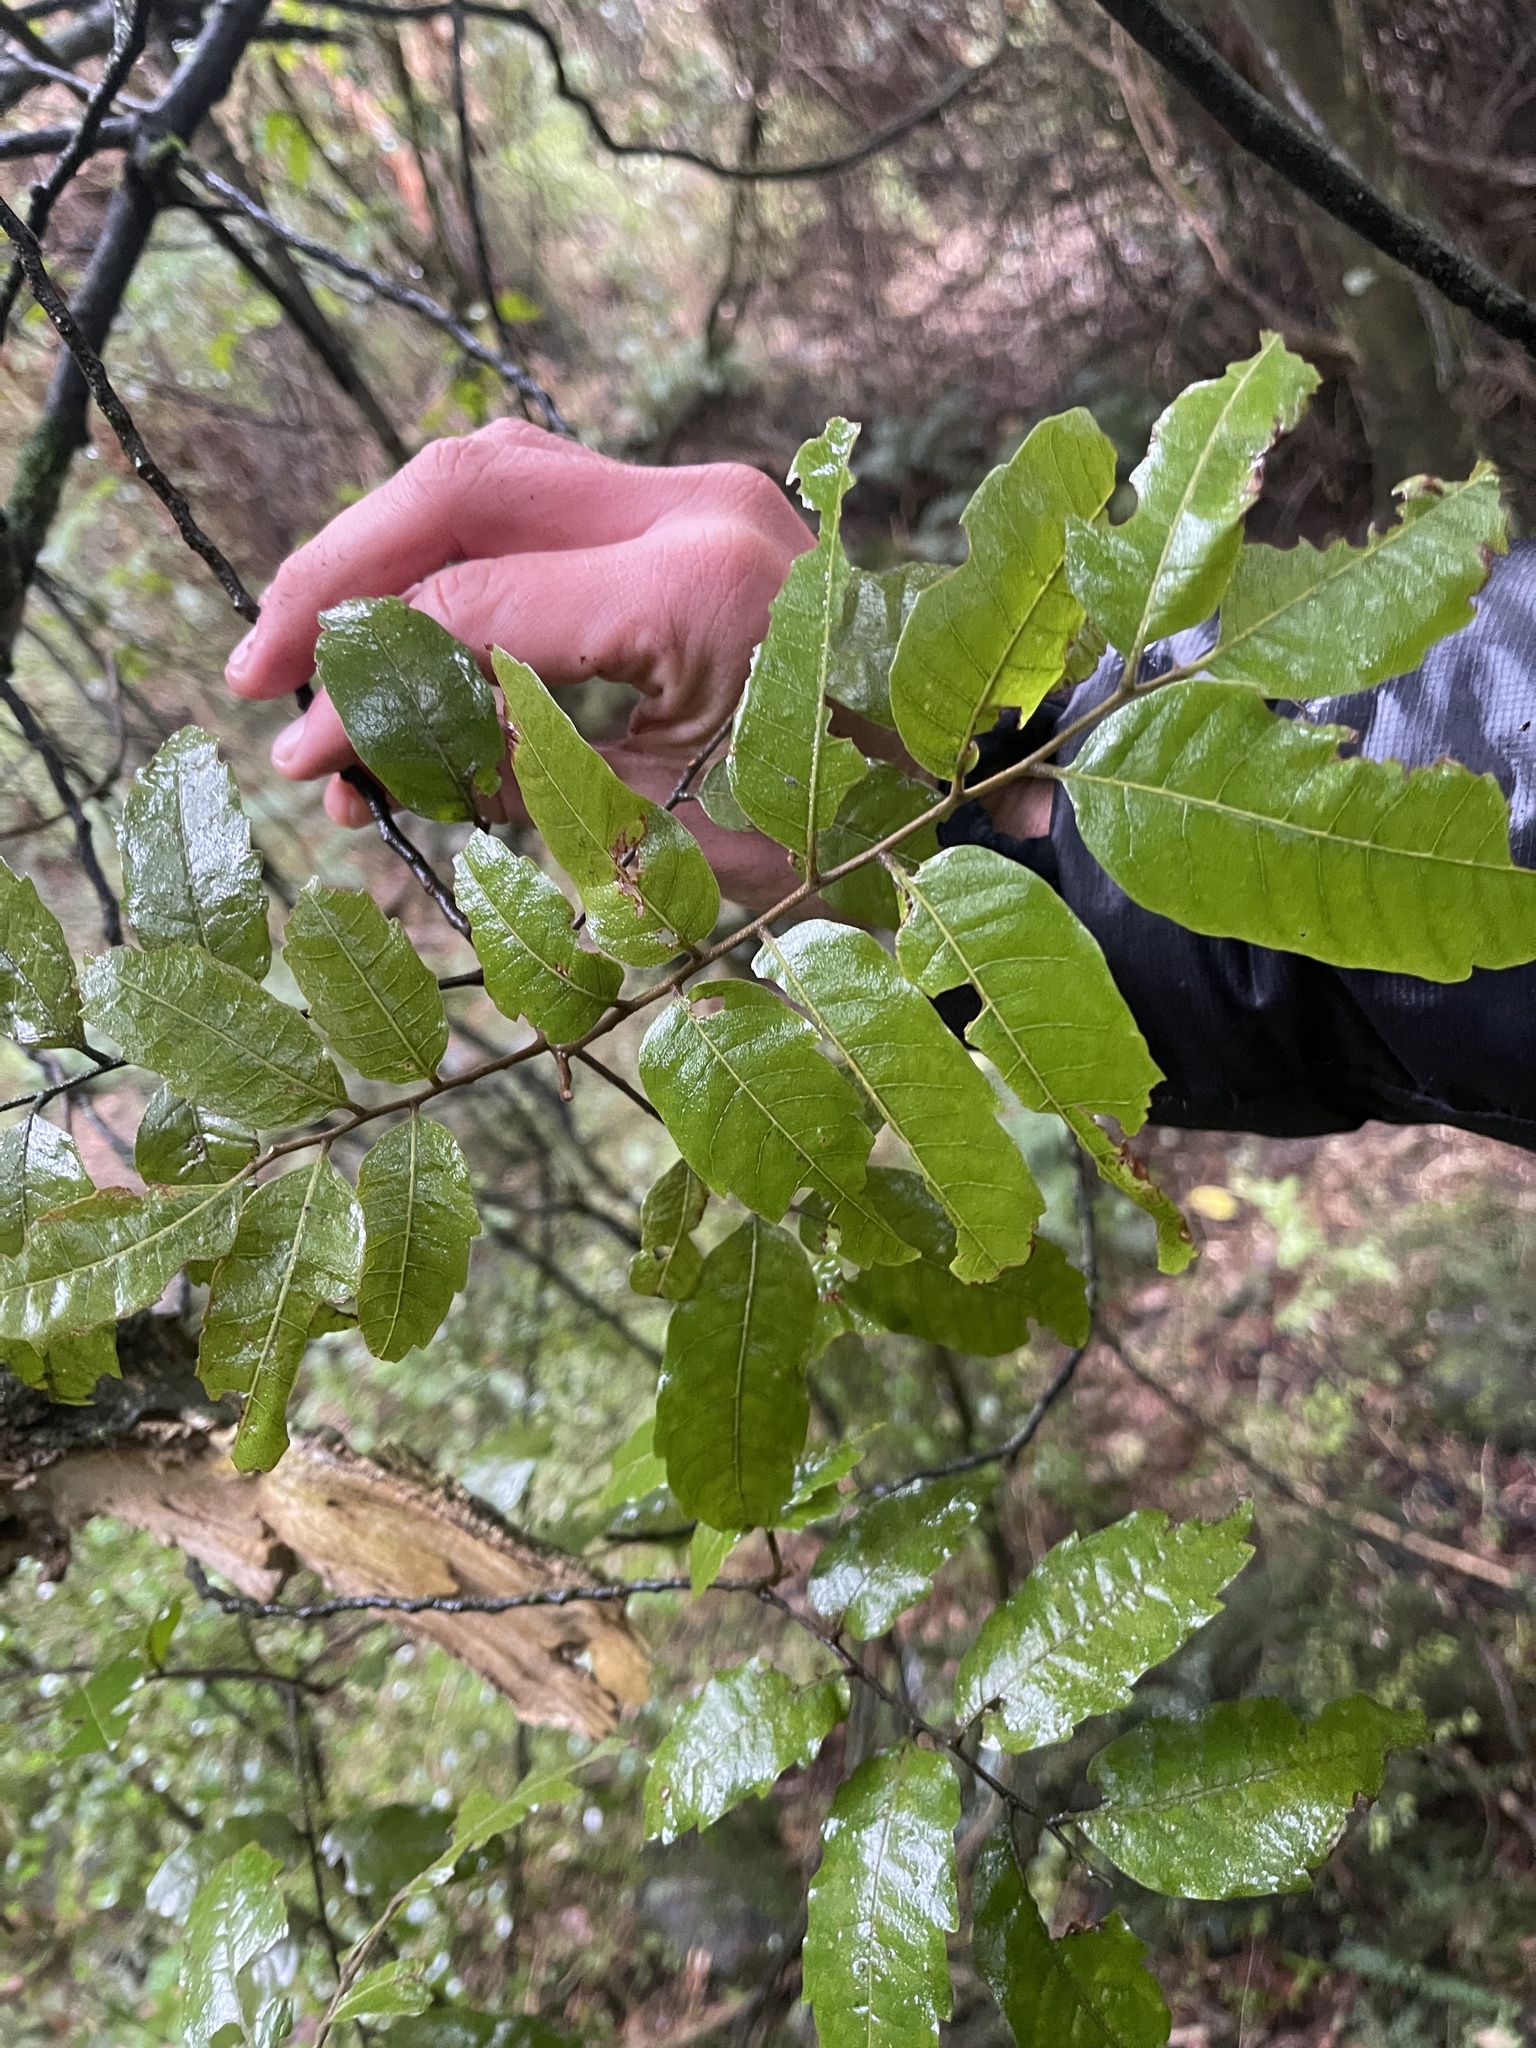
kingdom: Plantae
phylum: Tracheophyta
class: Magnoliopsida
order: Sapindales
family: Sapindaceae
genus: Alectryon
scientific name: Alectryon excelsus
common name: Three kings titoki
